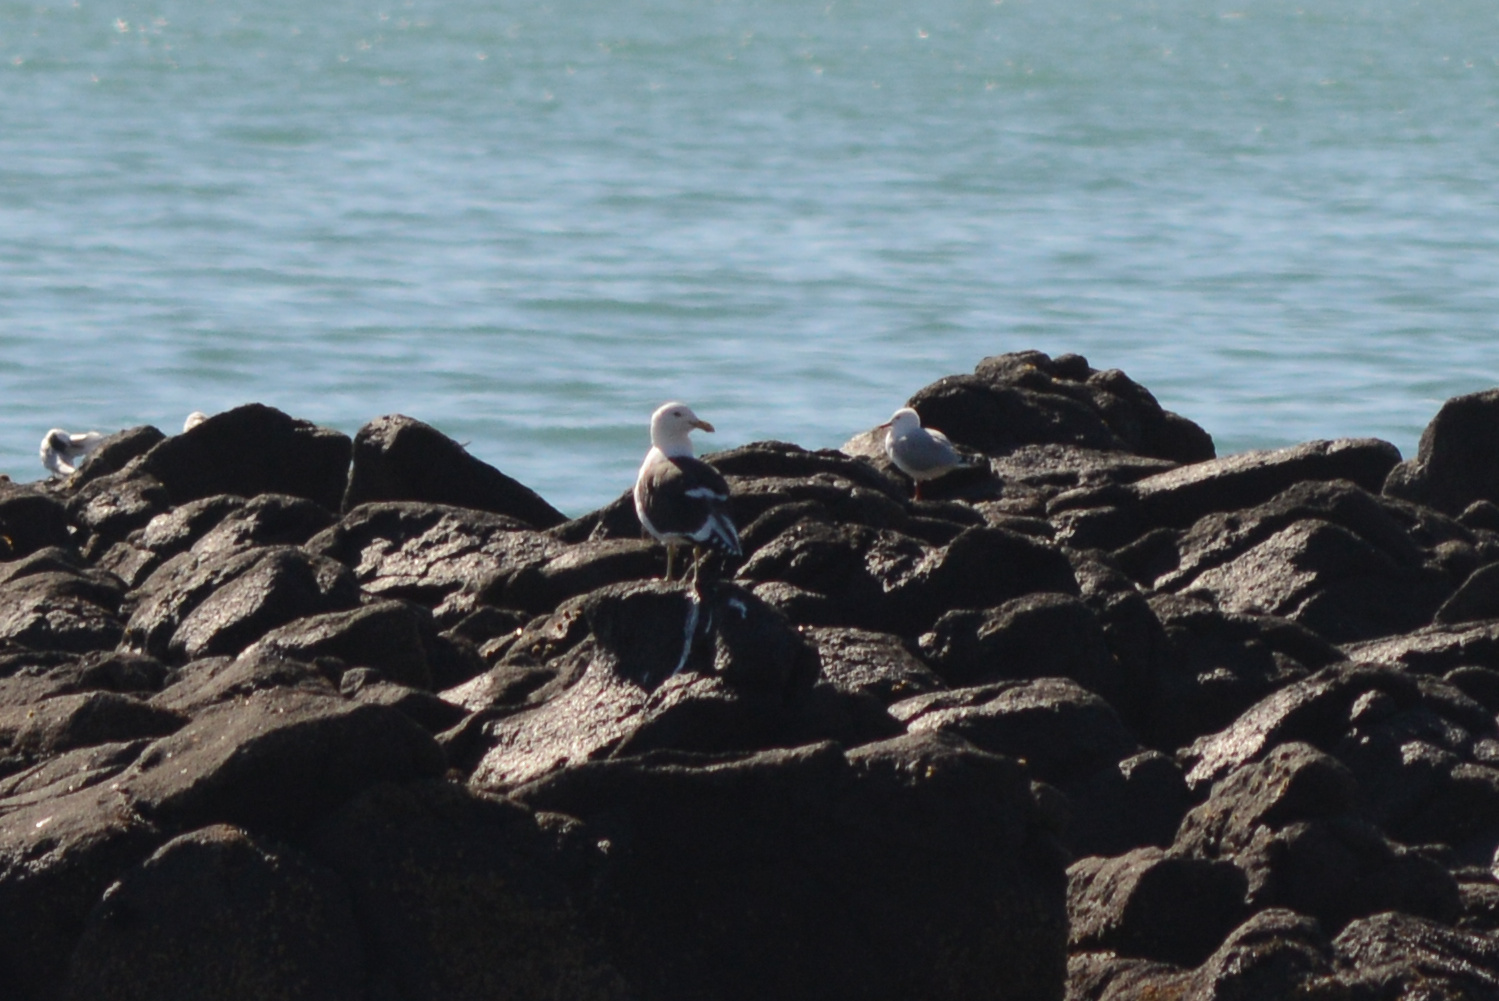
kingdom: Animalia
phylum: Chordata
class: Aves
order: Charadriiformes
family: Laridae
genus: Larus
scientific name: Larus dominicanus
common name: Kelp gull
